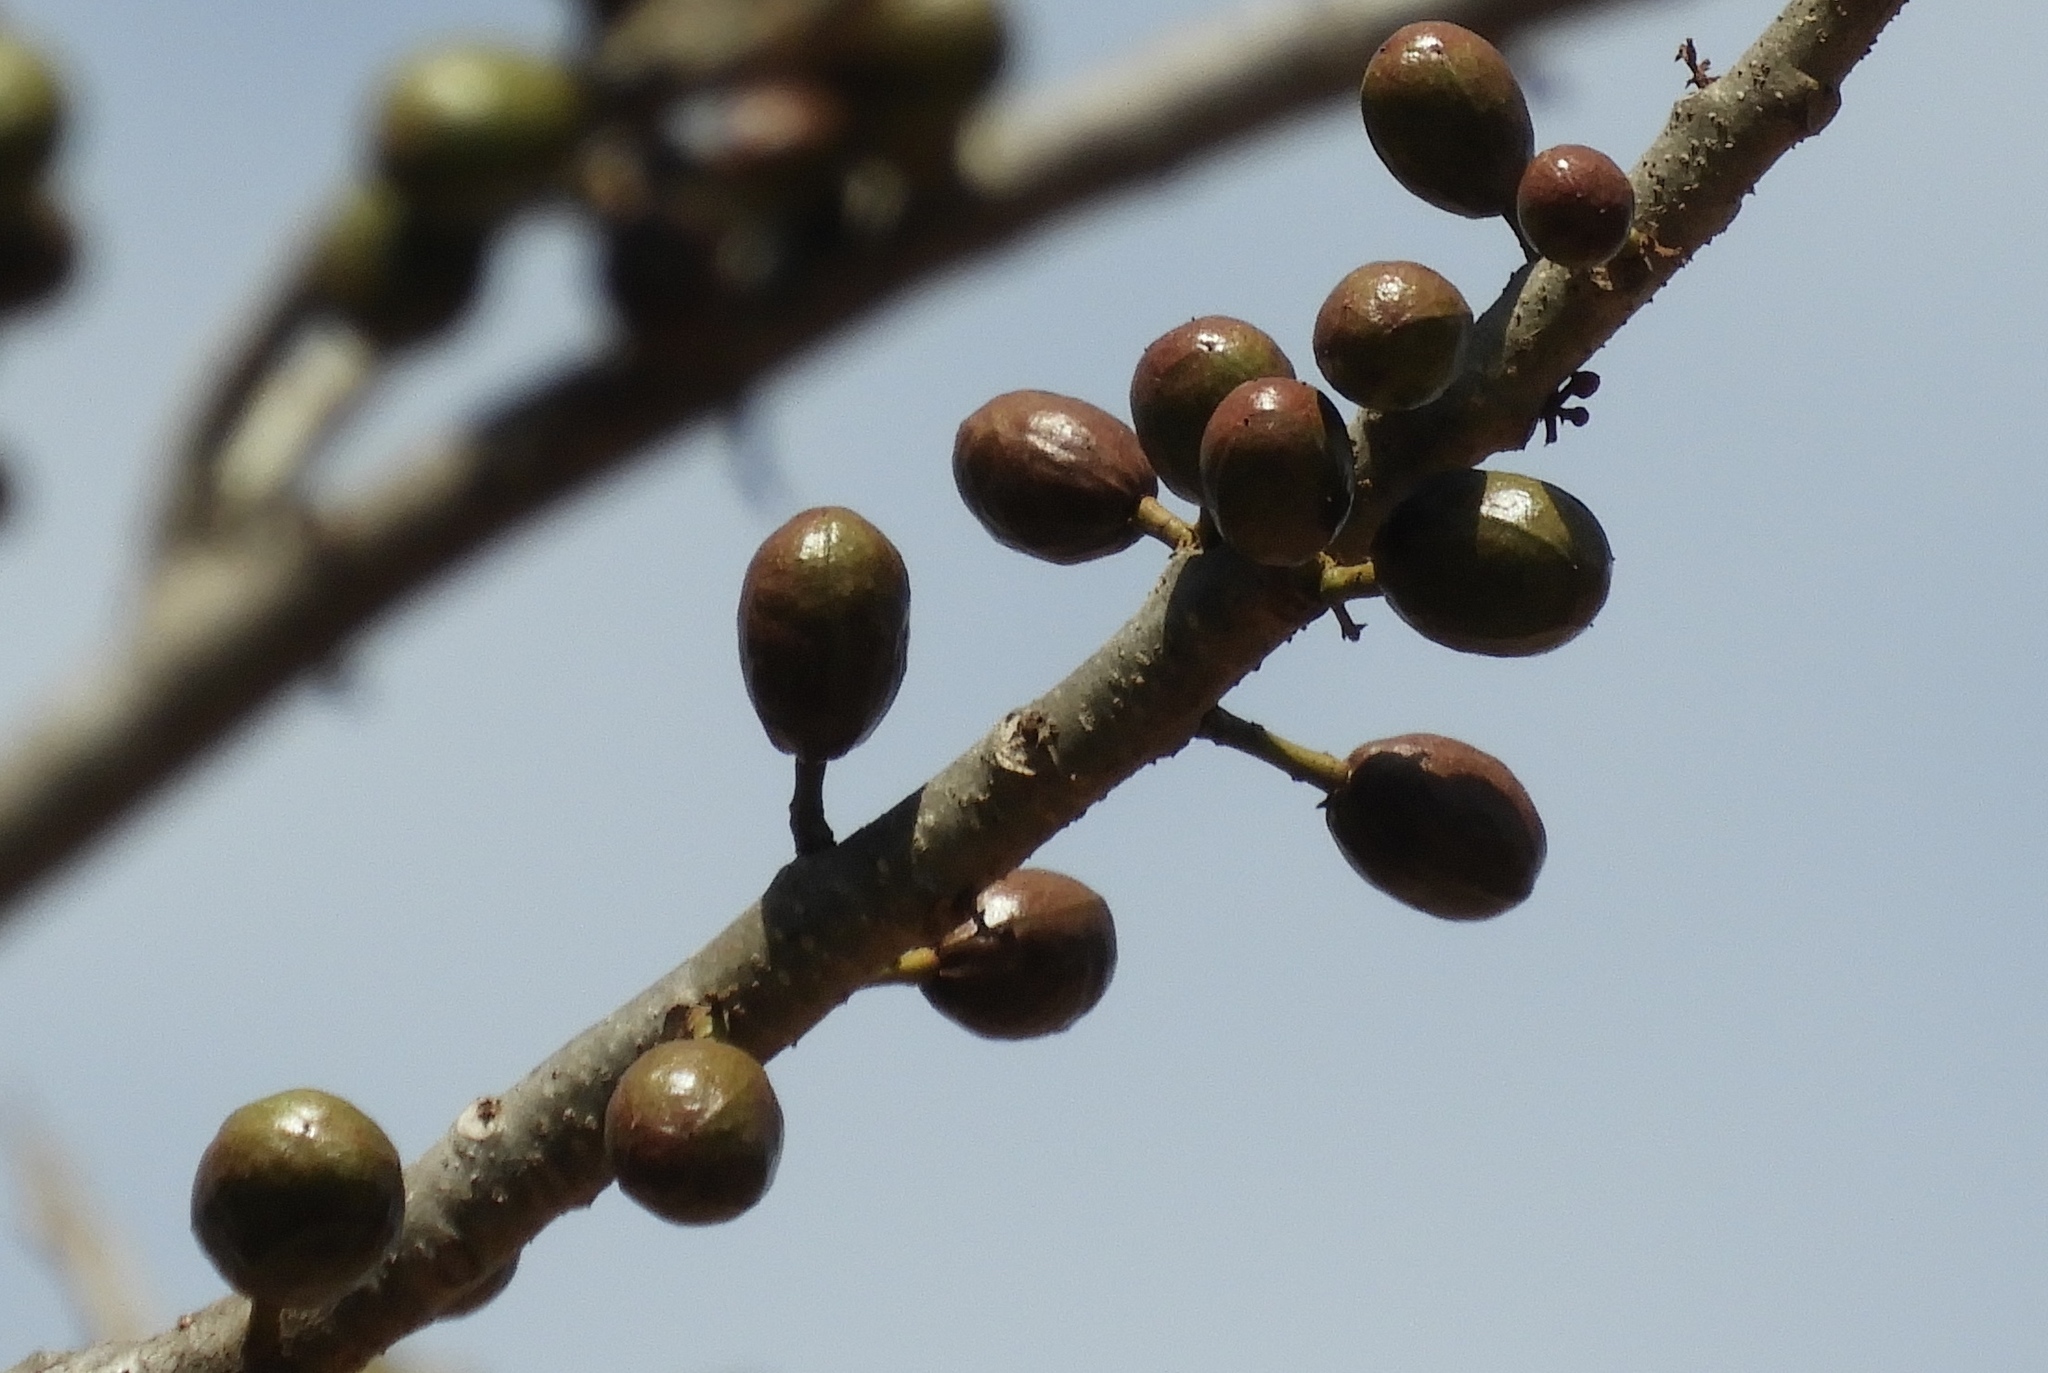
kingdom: Plantae
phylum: Tracheophyta
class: Magnoliopsida
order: Sapindales
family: Anacardiaceae
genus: Spondias
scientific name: Spondias purpurea
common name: Purple mombin
